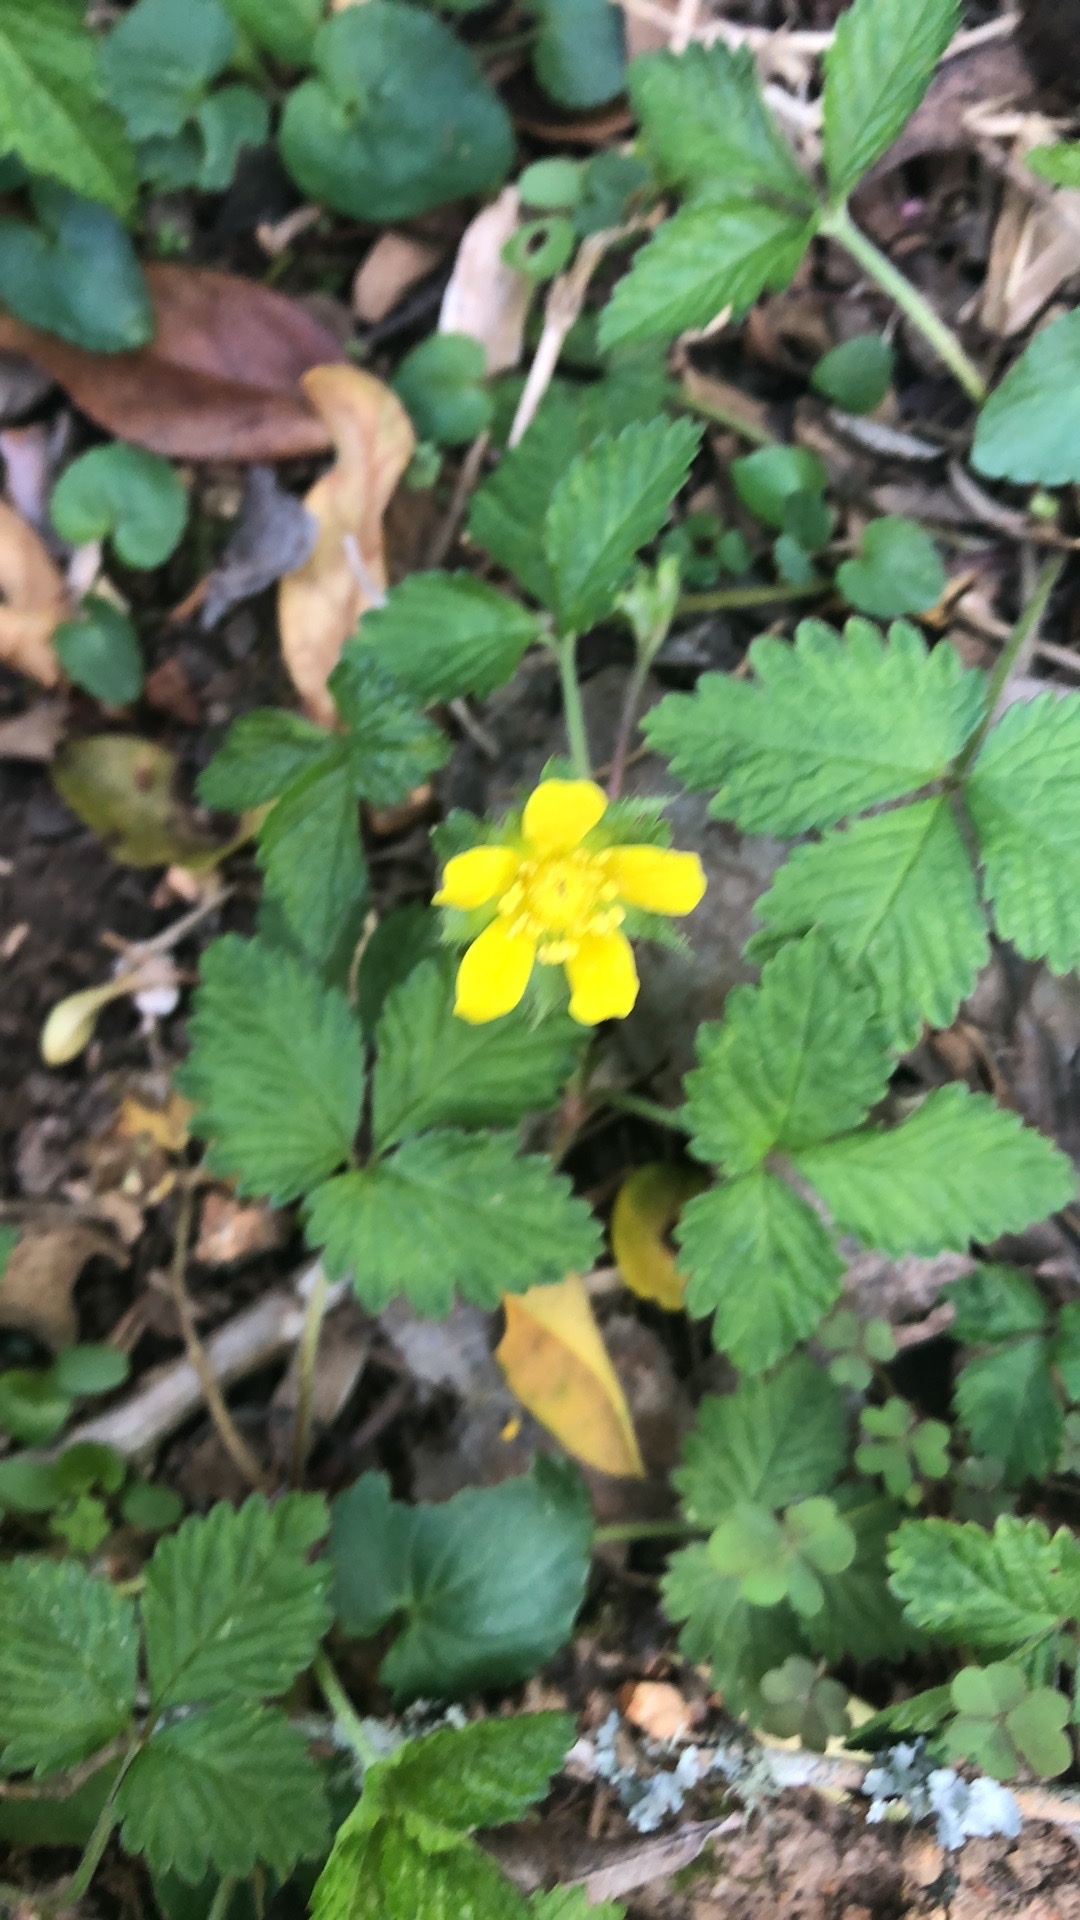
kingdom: Plantae
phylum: Tracheophyta
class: Magnoliopsida
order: Rosales
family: Rosaceae
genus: Potentilla
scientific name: Potentilla indica
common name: Yellow-flowered strawberry
